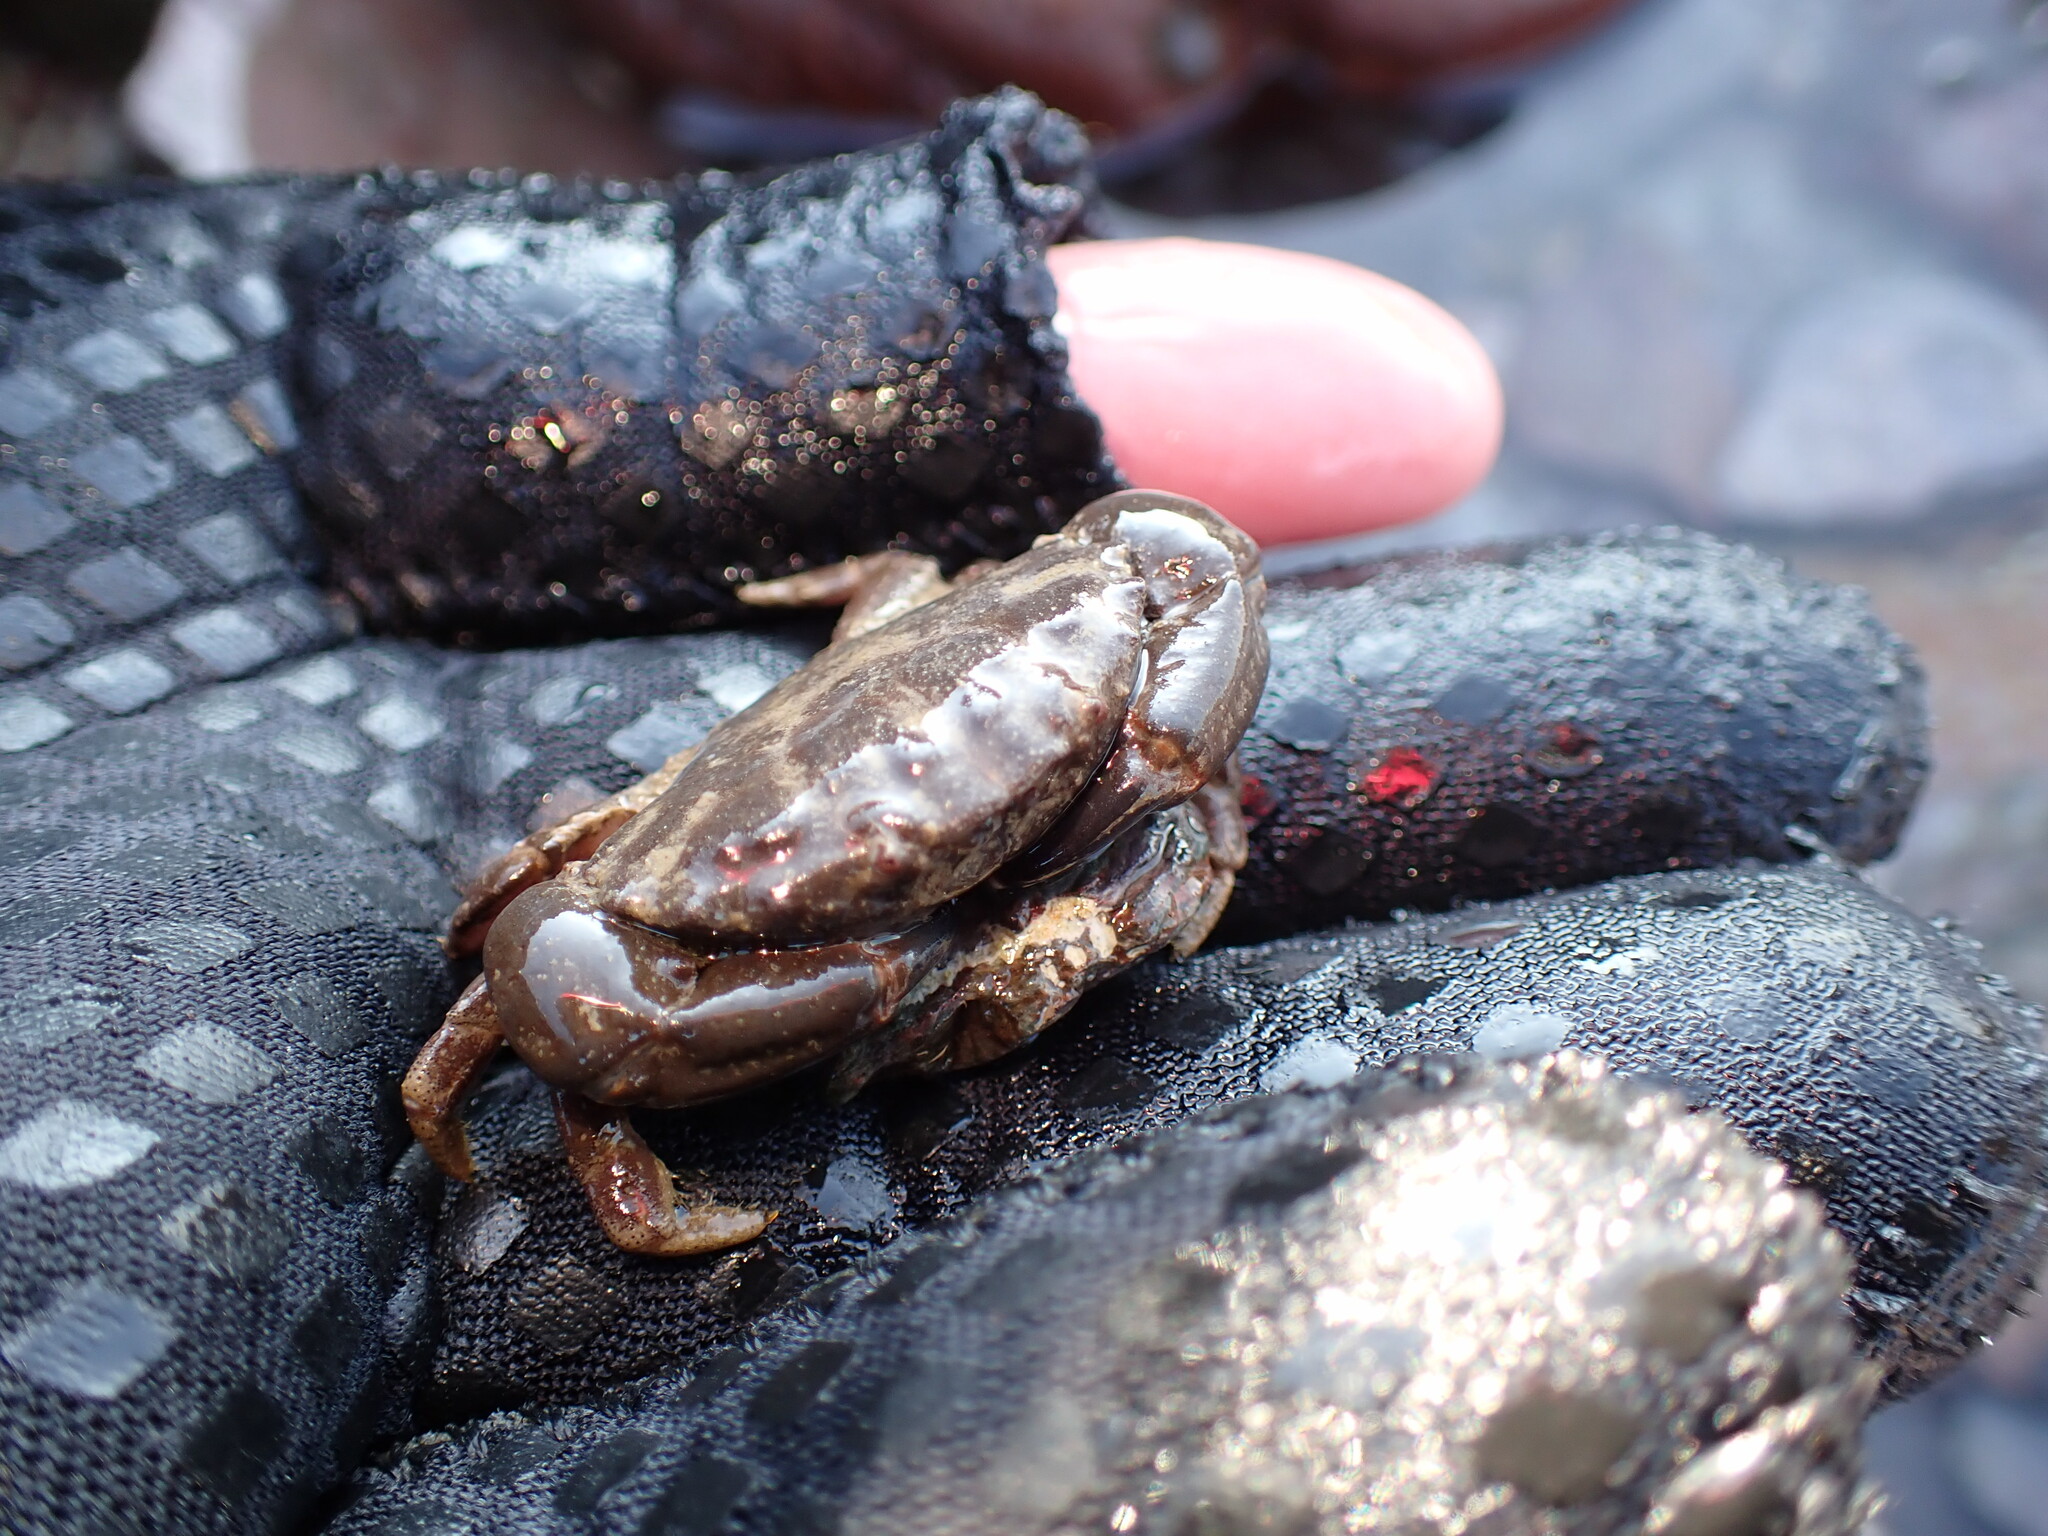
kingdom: Animalia
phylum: Arthropoda
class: Malacostraca
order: Decapoda
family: Xanthidae
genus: Xantho
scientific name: Xantho hydrophilus
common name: Montagu's crab
